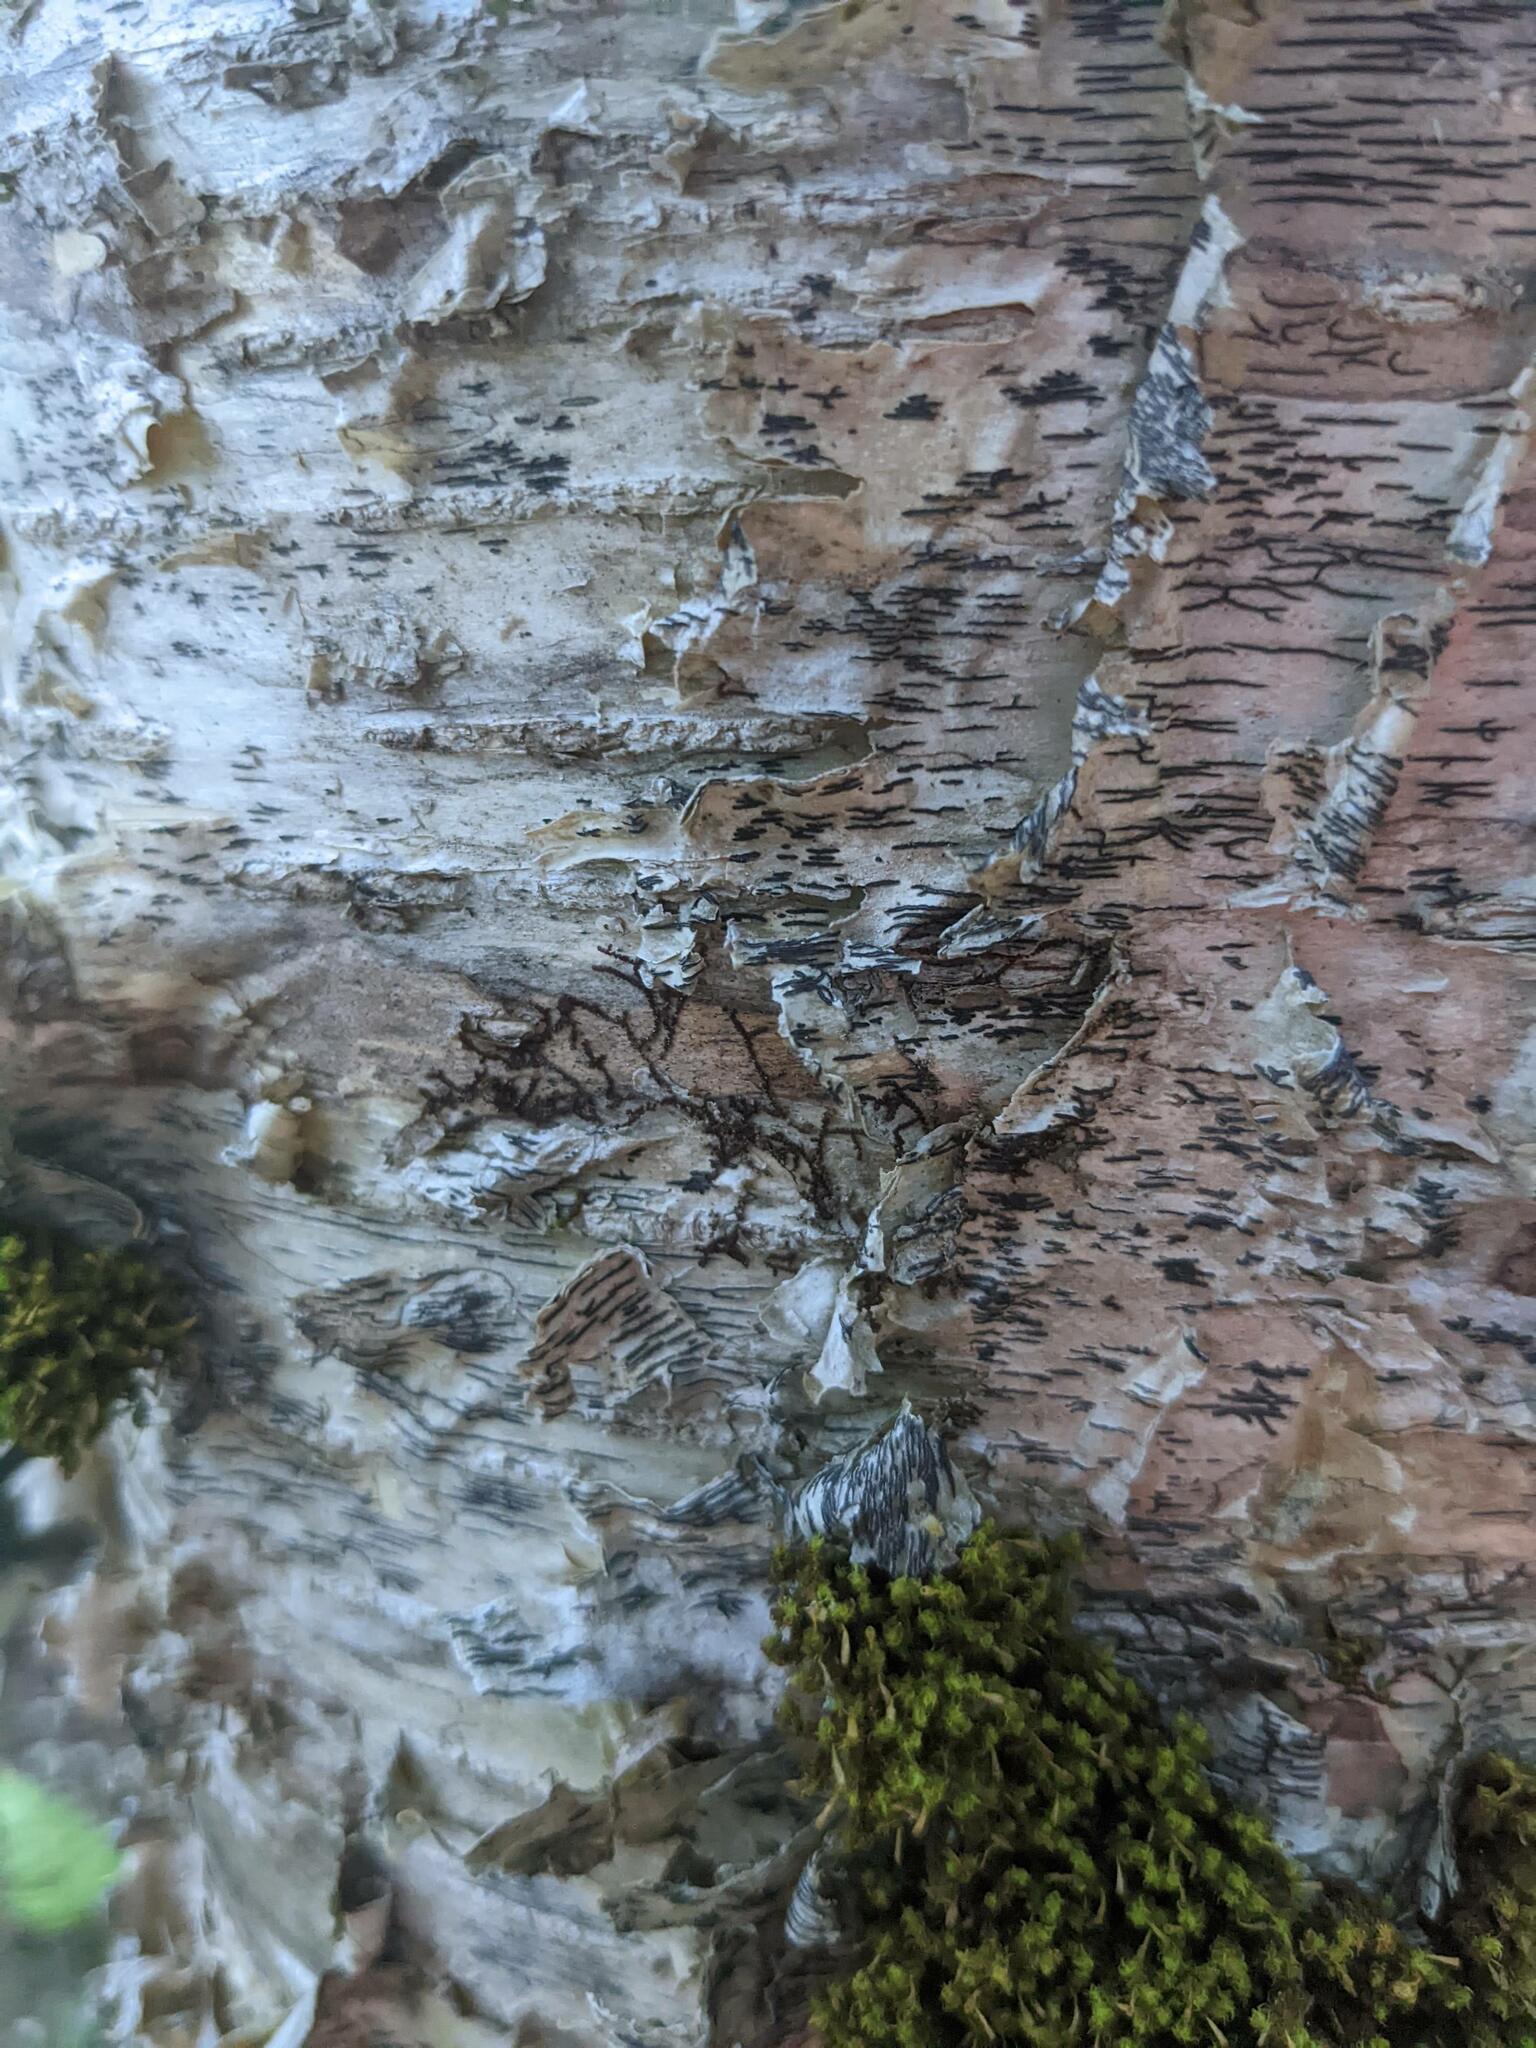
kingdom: Plantae
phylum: Marchantiophyta
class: Jungermanniopsida
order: Porellales
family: Frullaniaceae
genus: Frullania
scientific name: Frullania eboracensis
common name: New york scalewort
